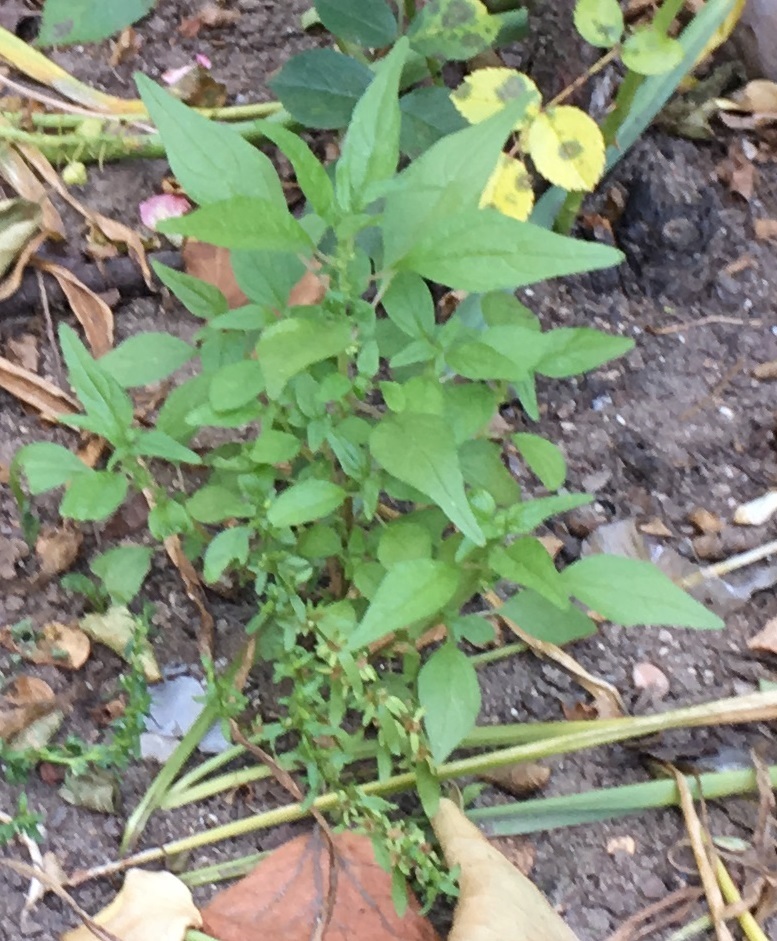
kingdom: Plantae
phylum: Tracheophyta
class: Magnoliopsida
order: Rosales
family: Urticaceae
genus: Parietaria
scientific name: Parietaria pensylvanica
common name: Pennsylvania pellitory
